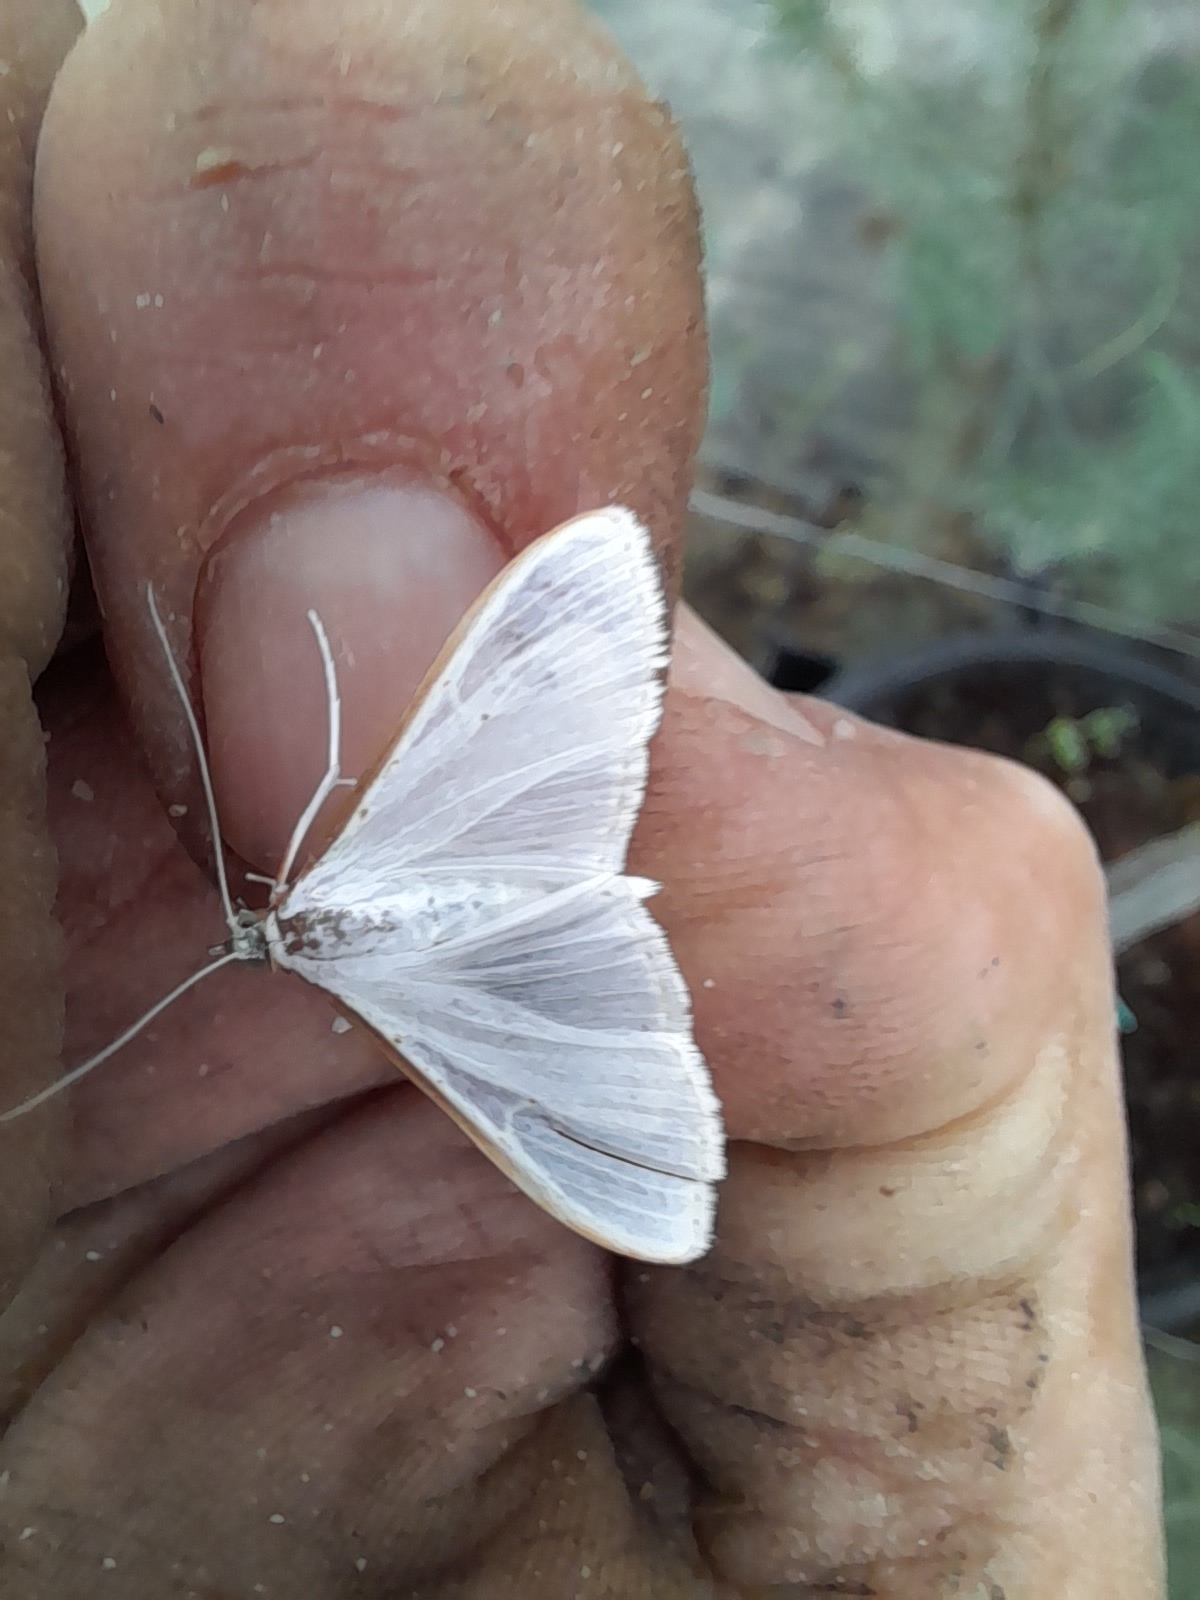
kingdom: Animalia
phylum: Arthropoda
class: Insecta
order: Lepidoptera
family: Crambidae
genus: Palpita
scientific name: Palpita vitrealis
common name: Olive-tree pearl
